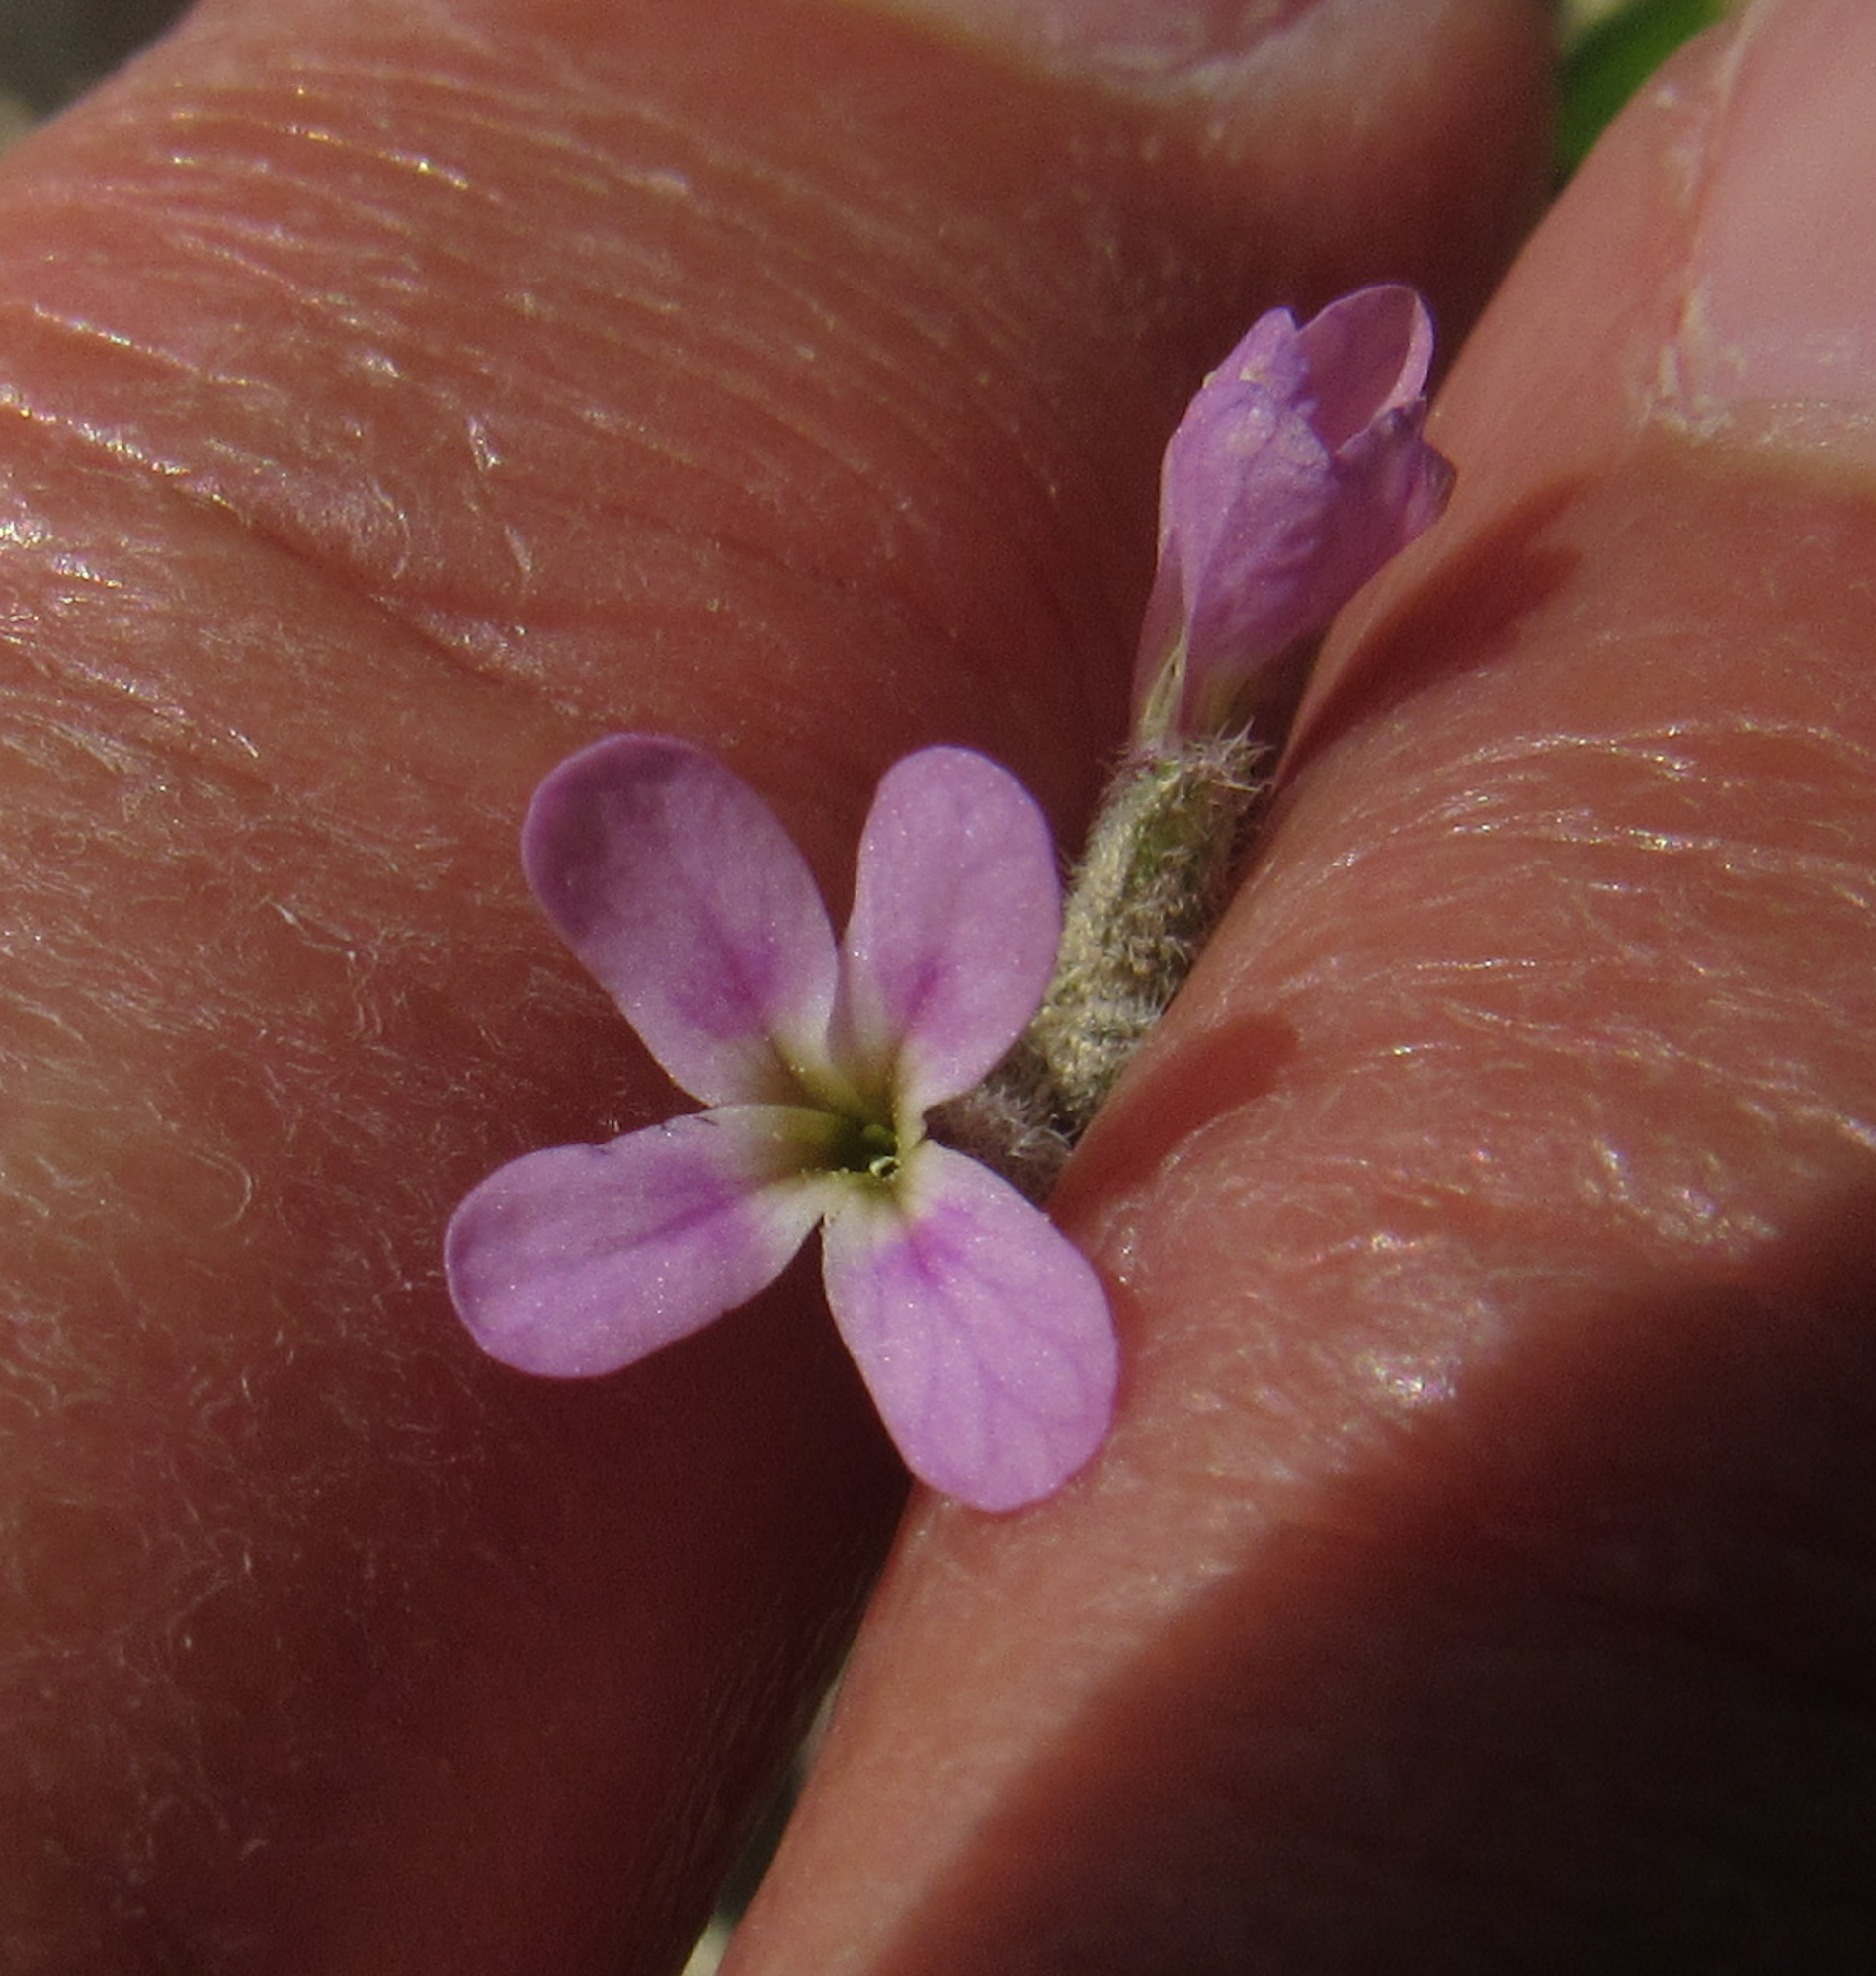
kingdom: Plantae
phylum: Tracheophyta
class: Magnoliopsida
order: Brassicales
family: Brassicaceae
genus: Strigosella
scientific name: Strigosella africana
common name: African mustard
